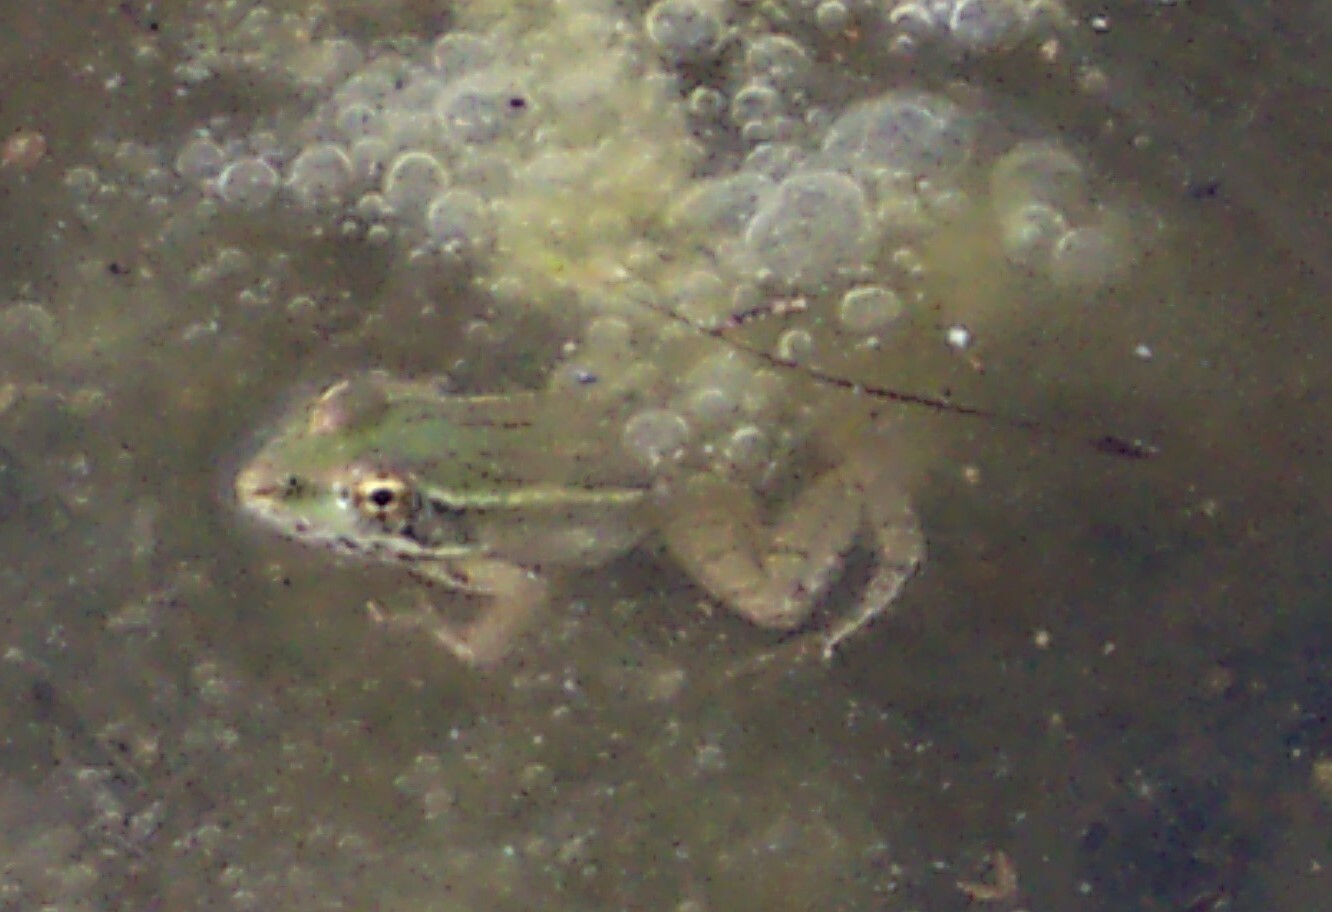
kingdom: Animalia
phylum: Chordata
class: Amphibia
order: Anura
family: Ranidae
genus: Lithobates
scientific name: Lithobates berlandieri
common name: Rio grande leopard frog
